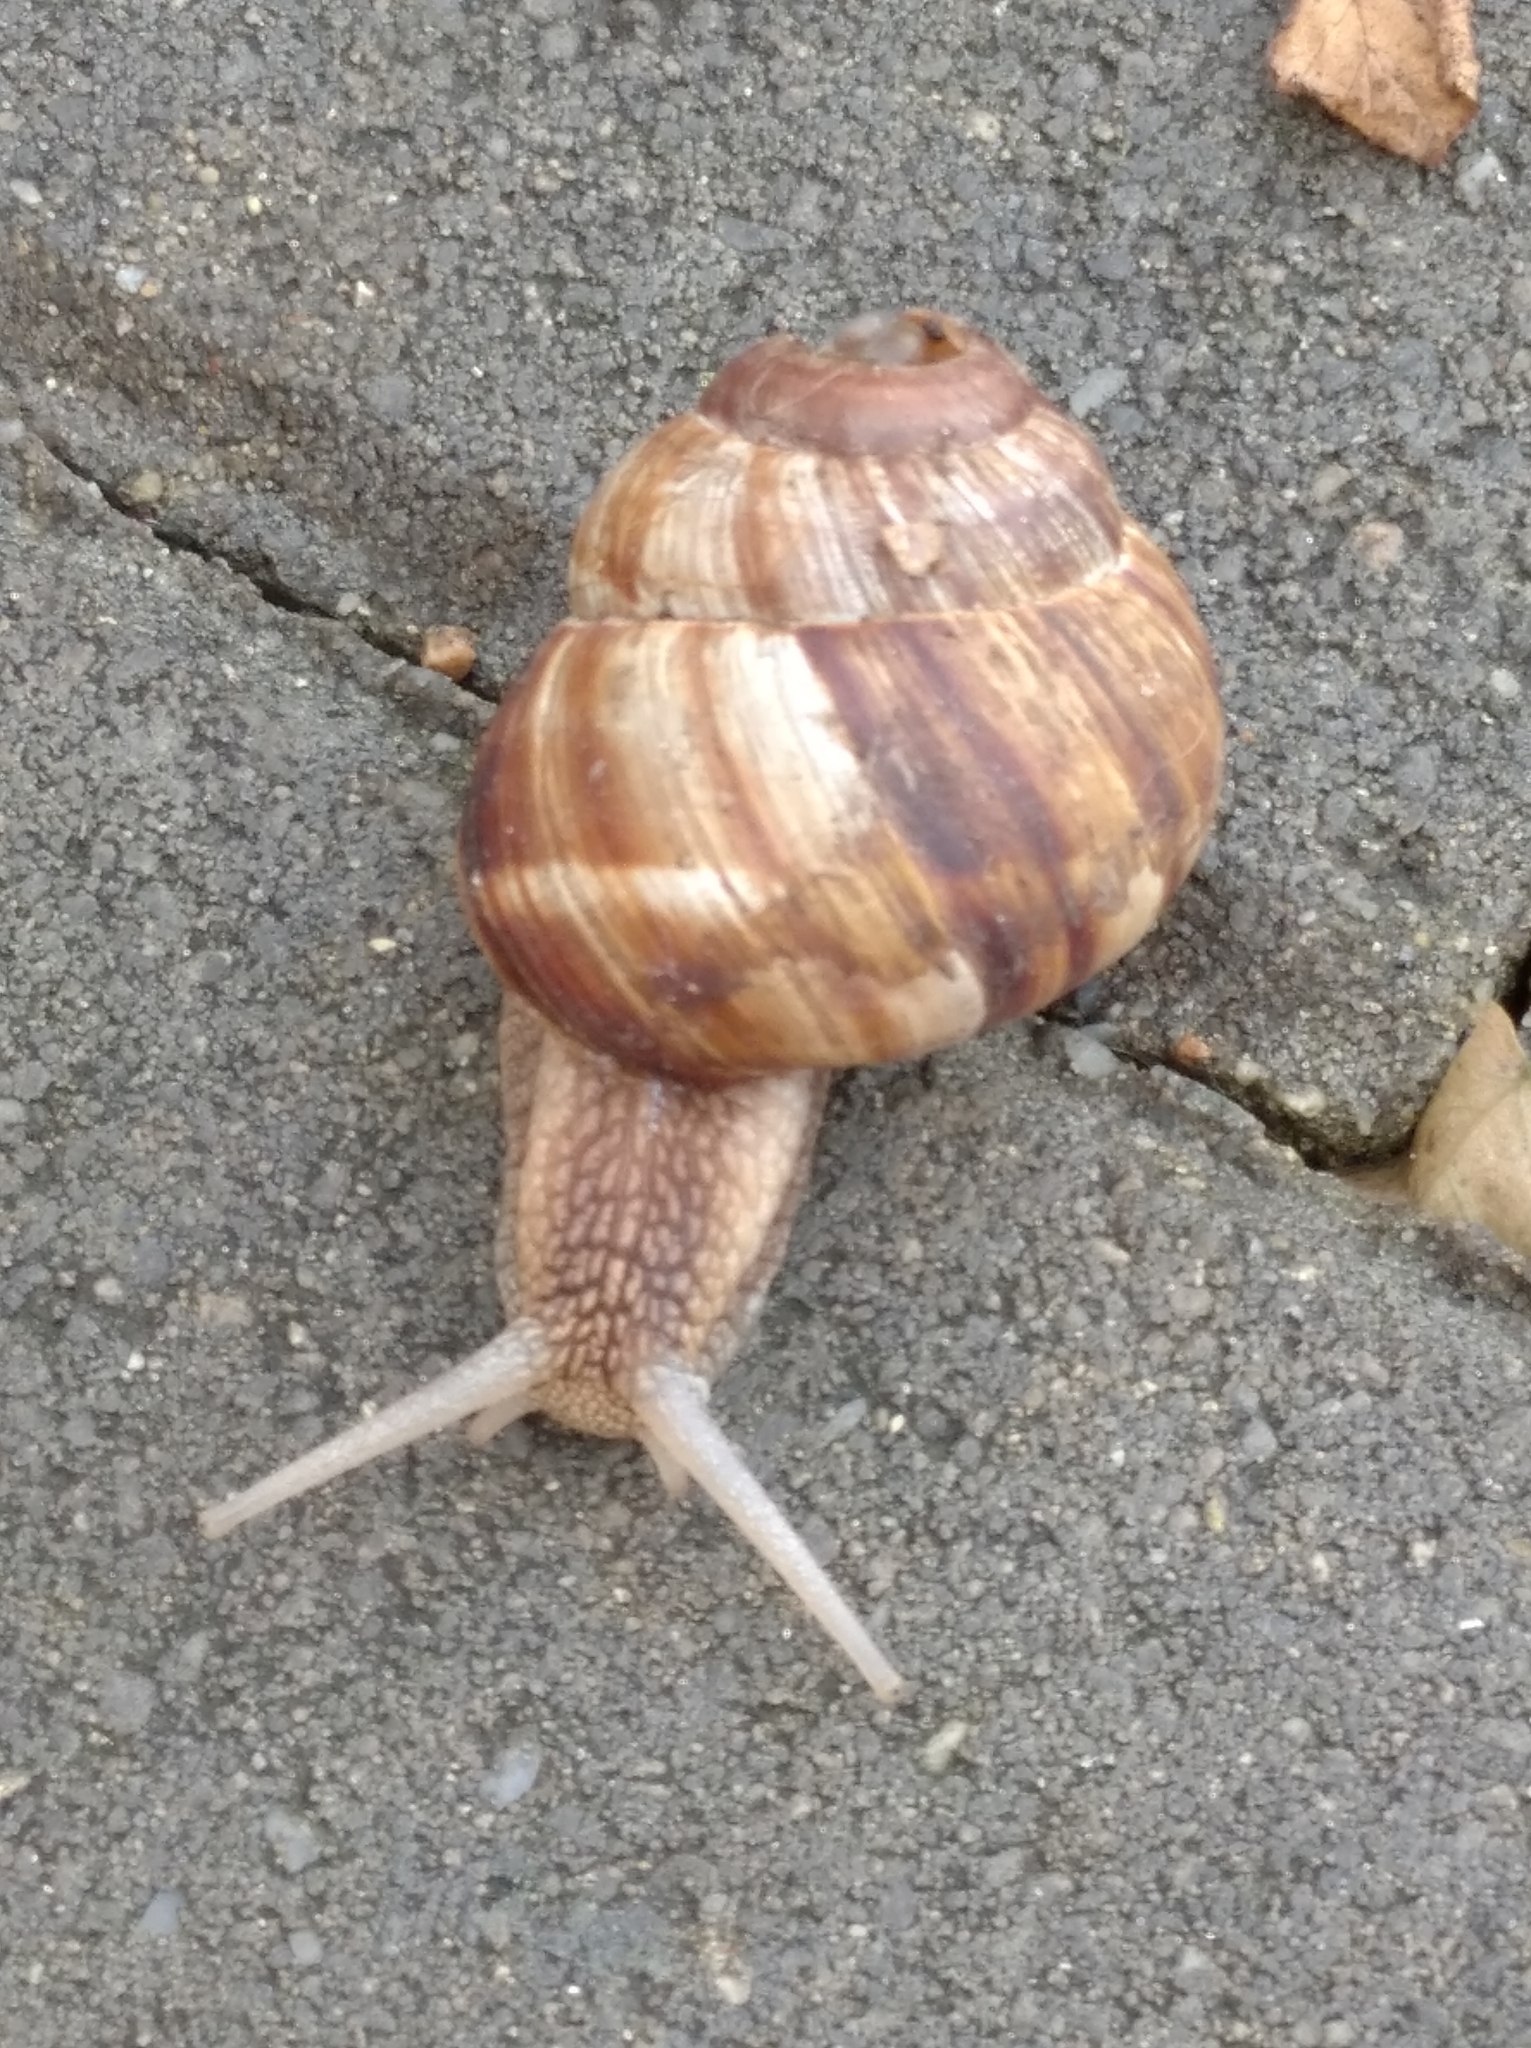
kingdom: Animalia
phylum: Mollusca
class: Gastropoda
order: Stylommatophora
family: Helicidae
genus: Helix
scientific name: Helix lucorum
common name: Turkish snail
